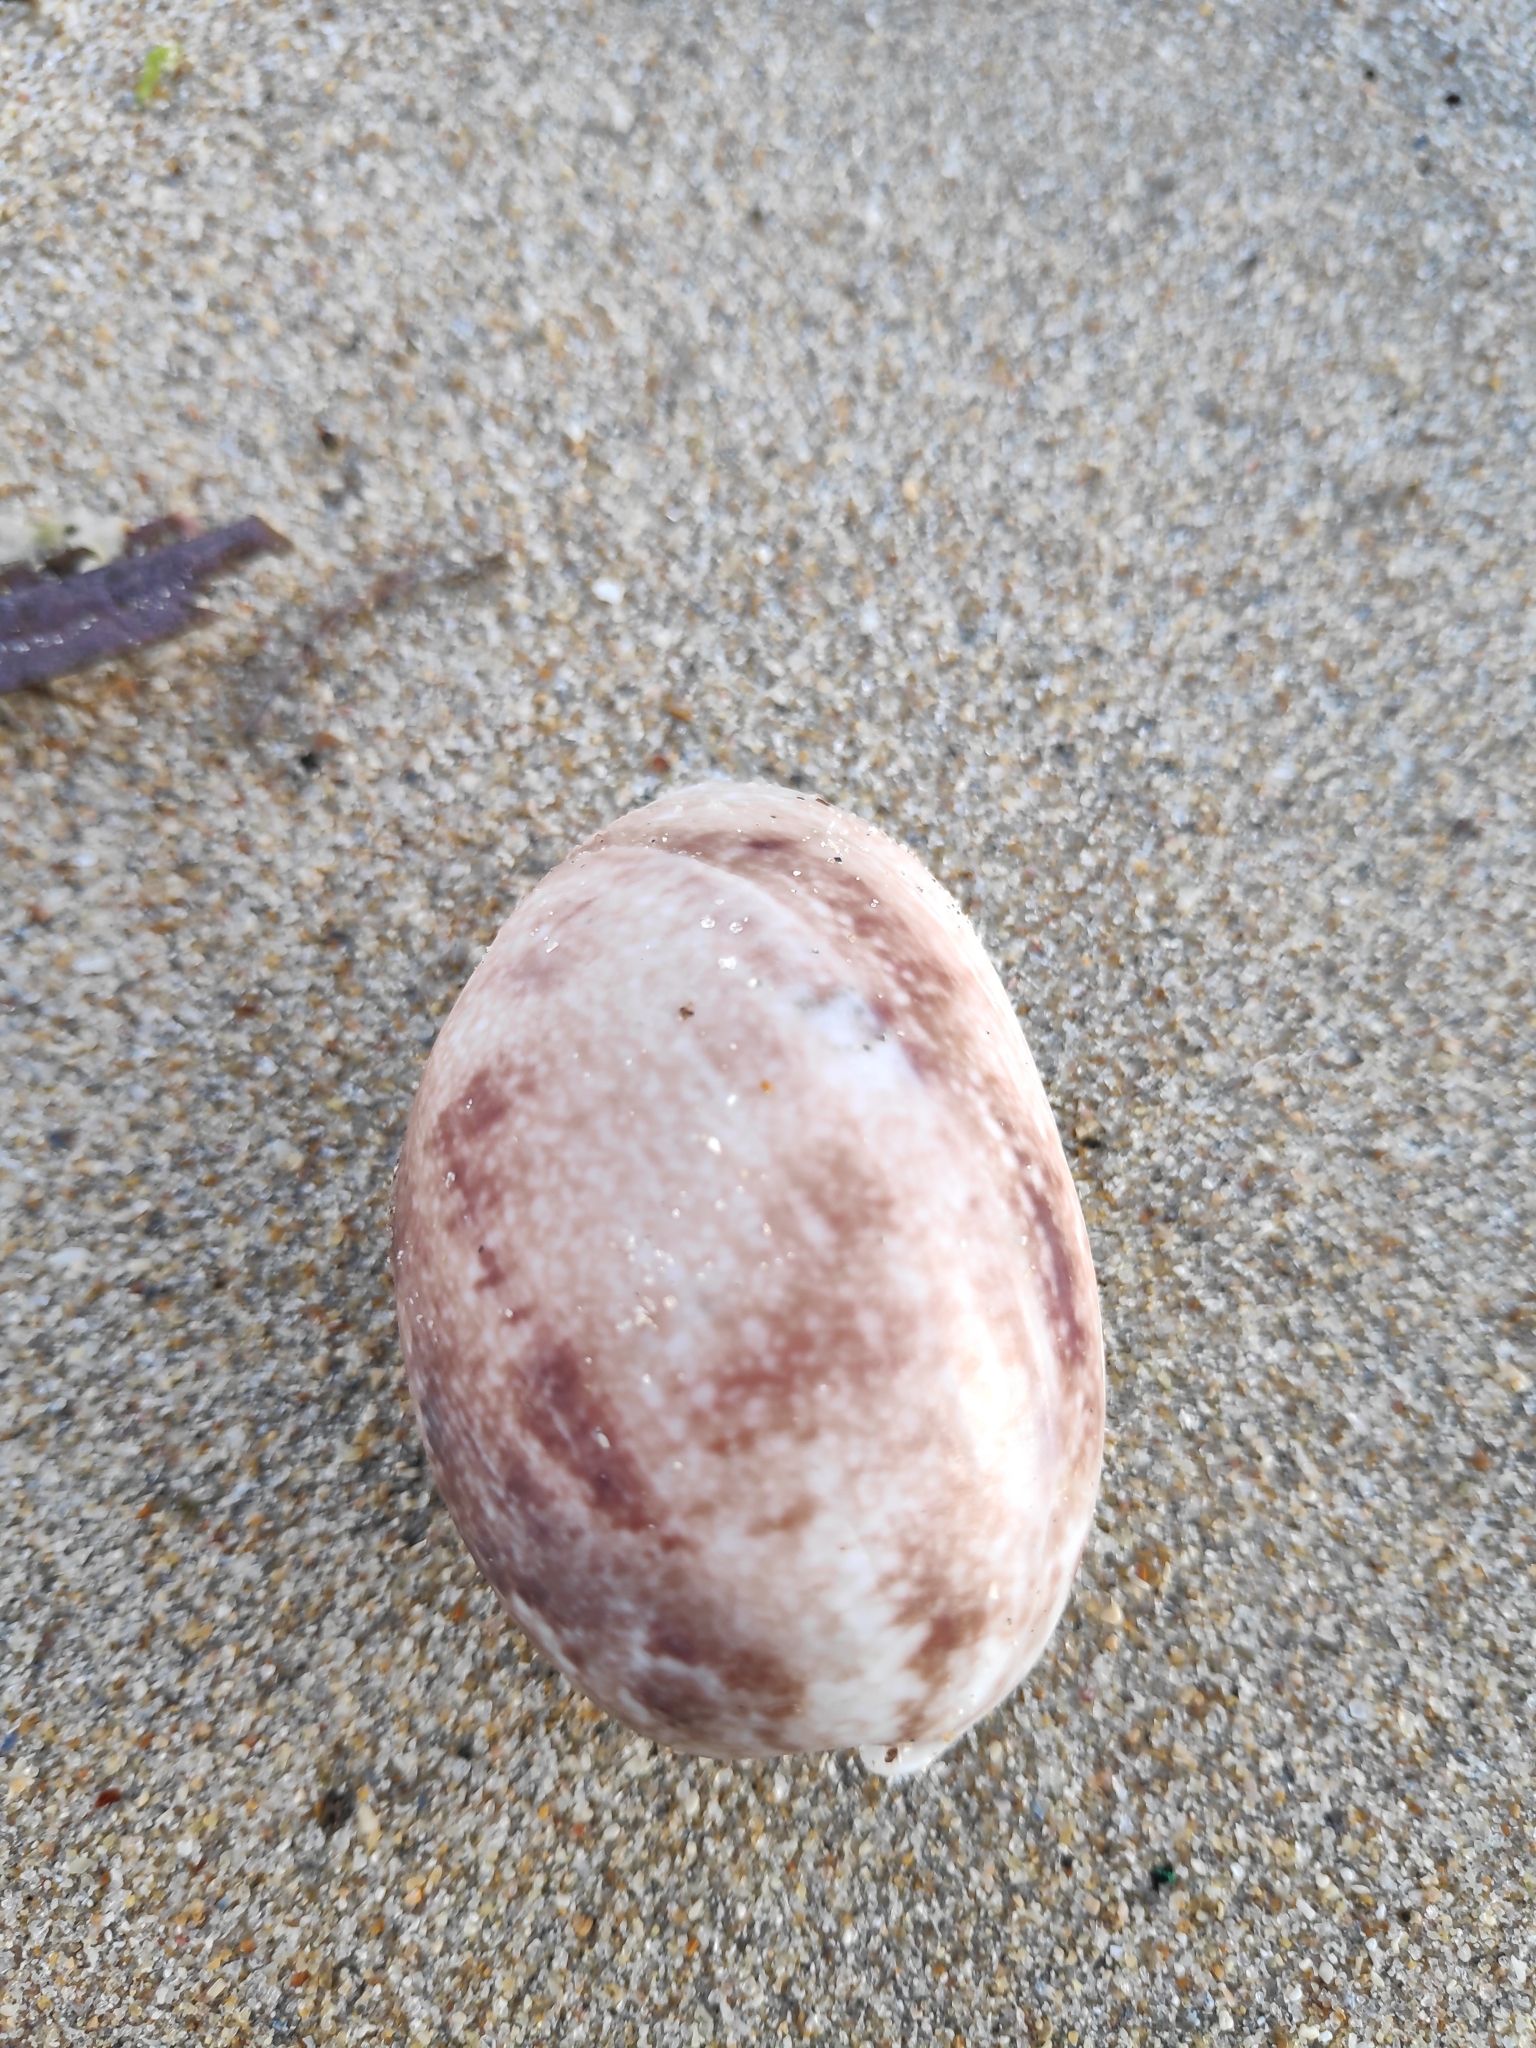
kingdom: Animalia
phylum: Mollusca
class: Gastropoda
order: Cephalaspidea
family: Bullidae
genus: Bulla
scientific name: Bulla ampulla
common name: Ampulle bubble
